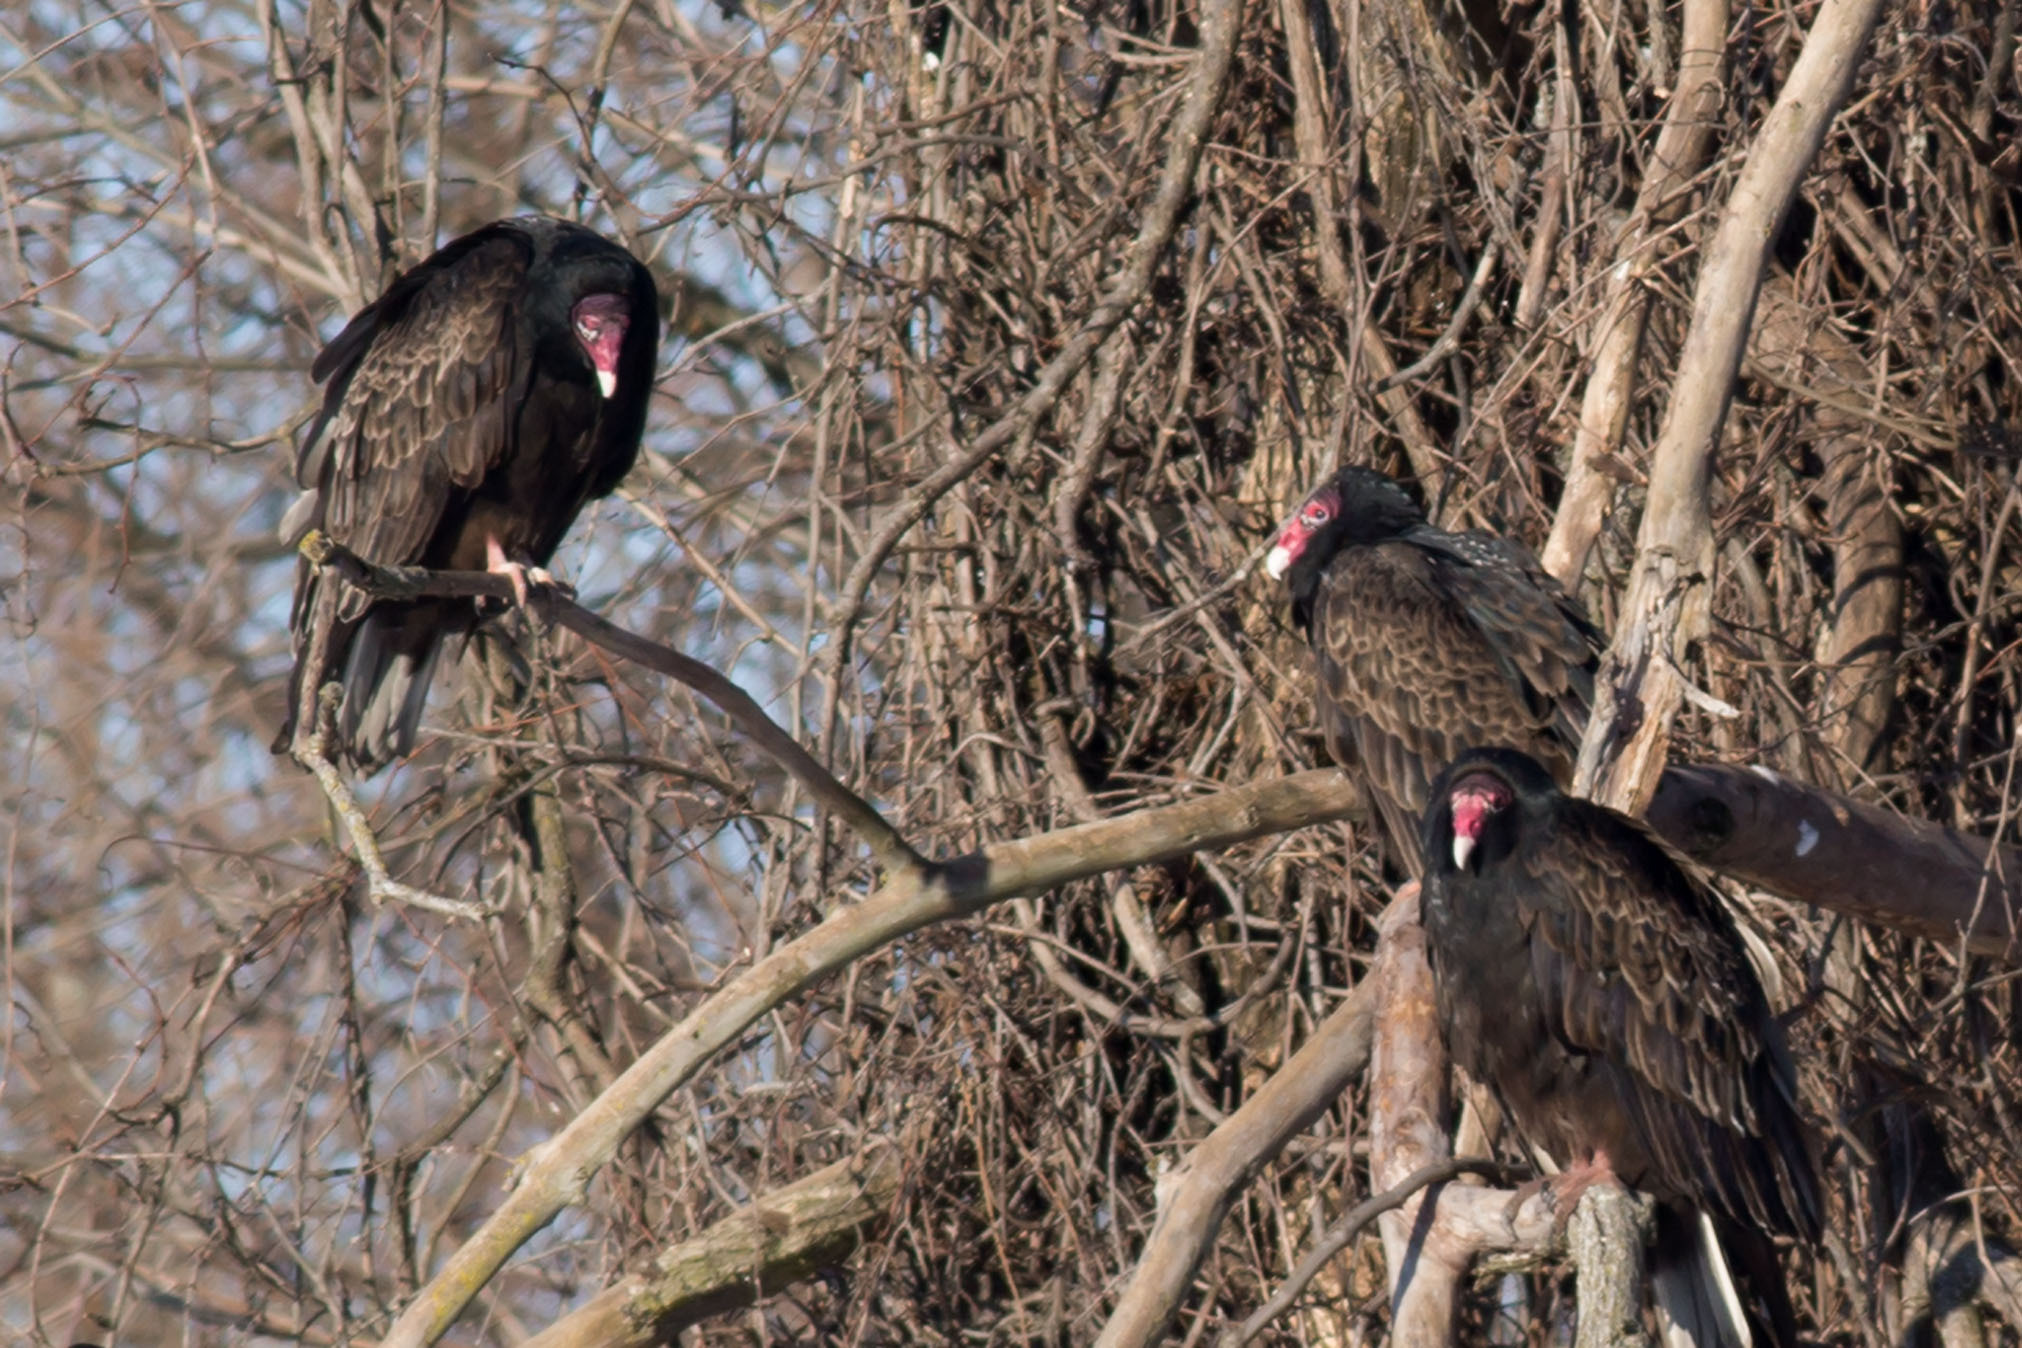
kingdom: Animalia
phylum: Chordata
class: Aves
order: Accipitriformes
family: Cathartidae
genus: Cathartes
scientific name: Cathartes aura
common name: Turkey vulture
